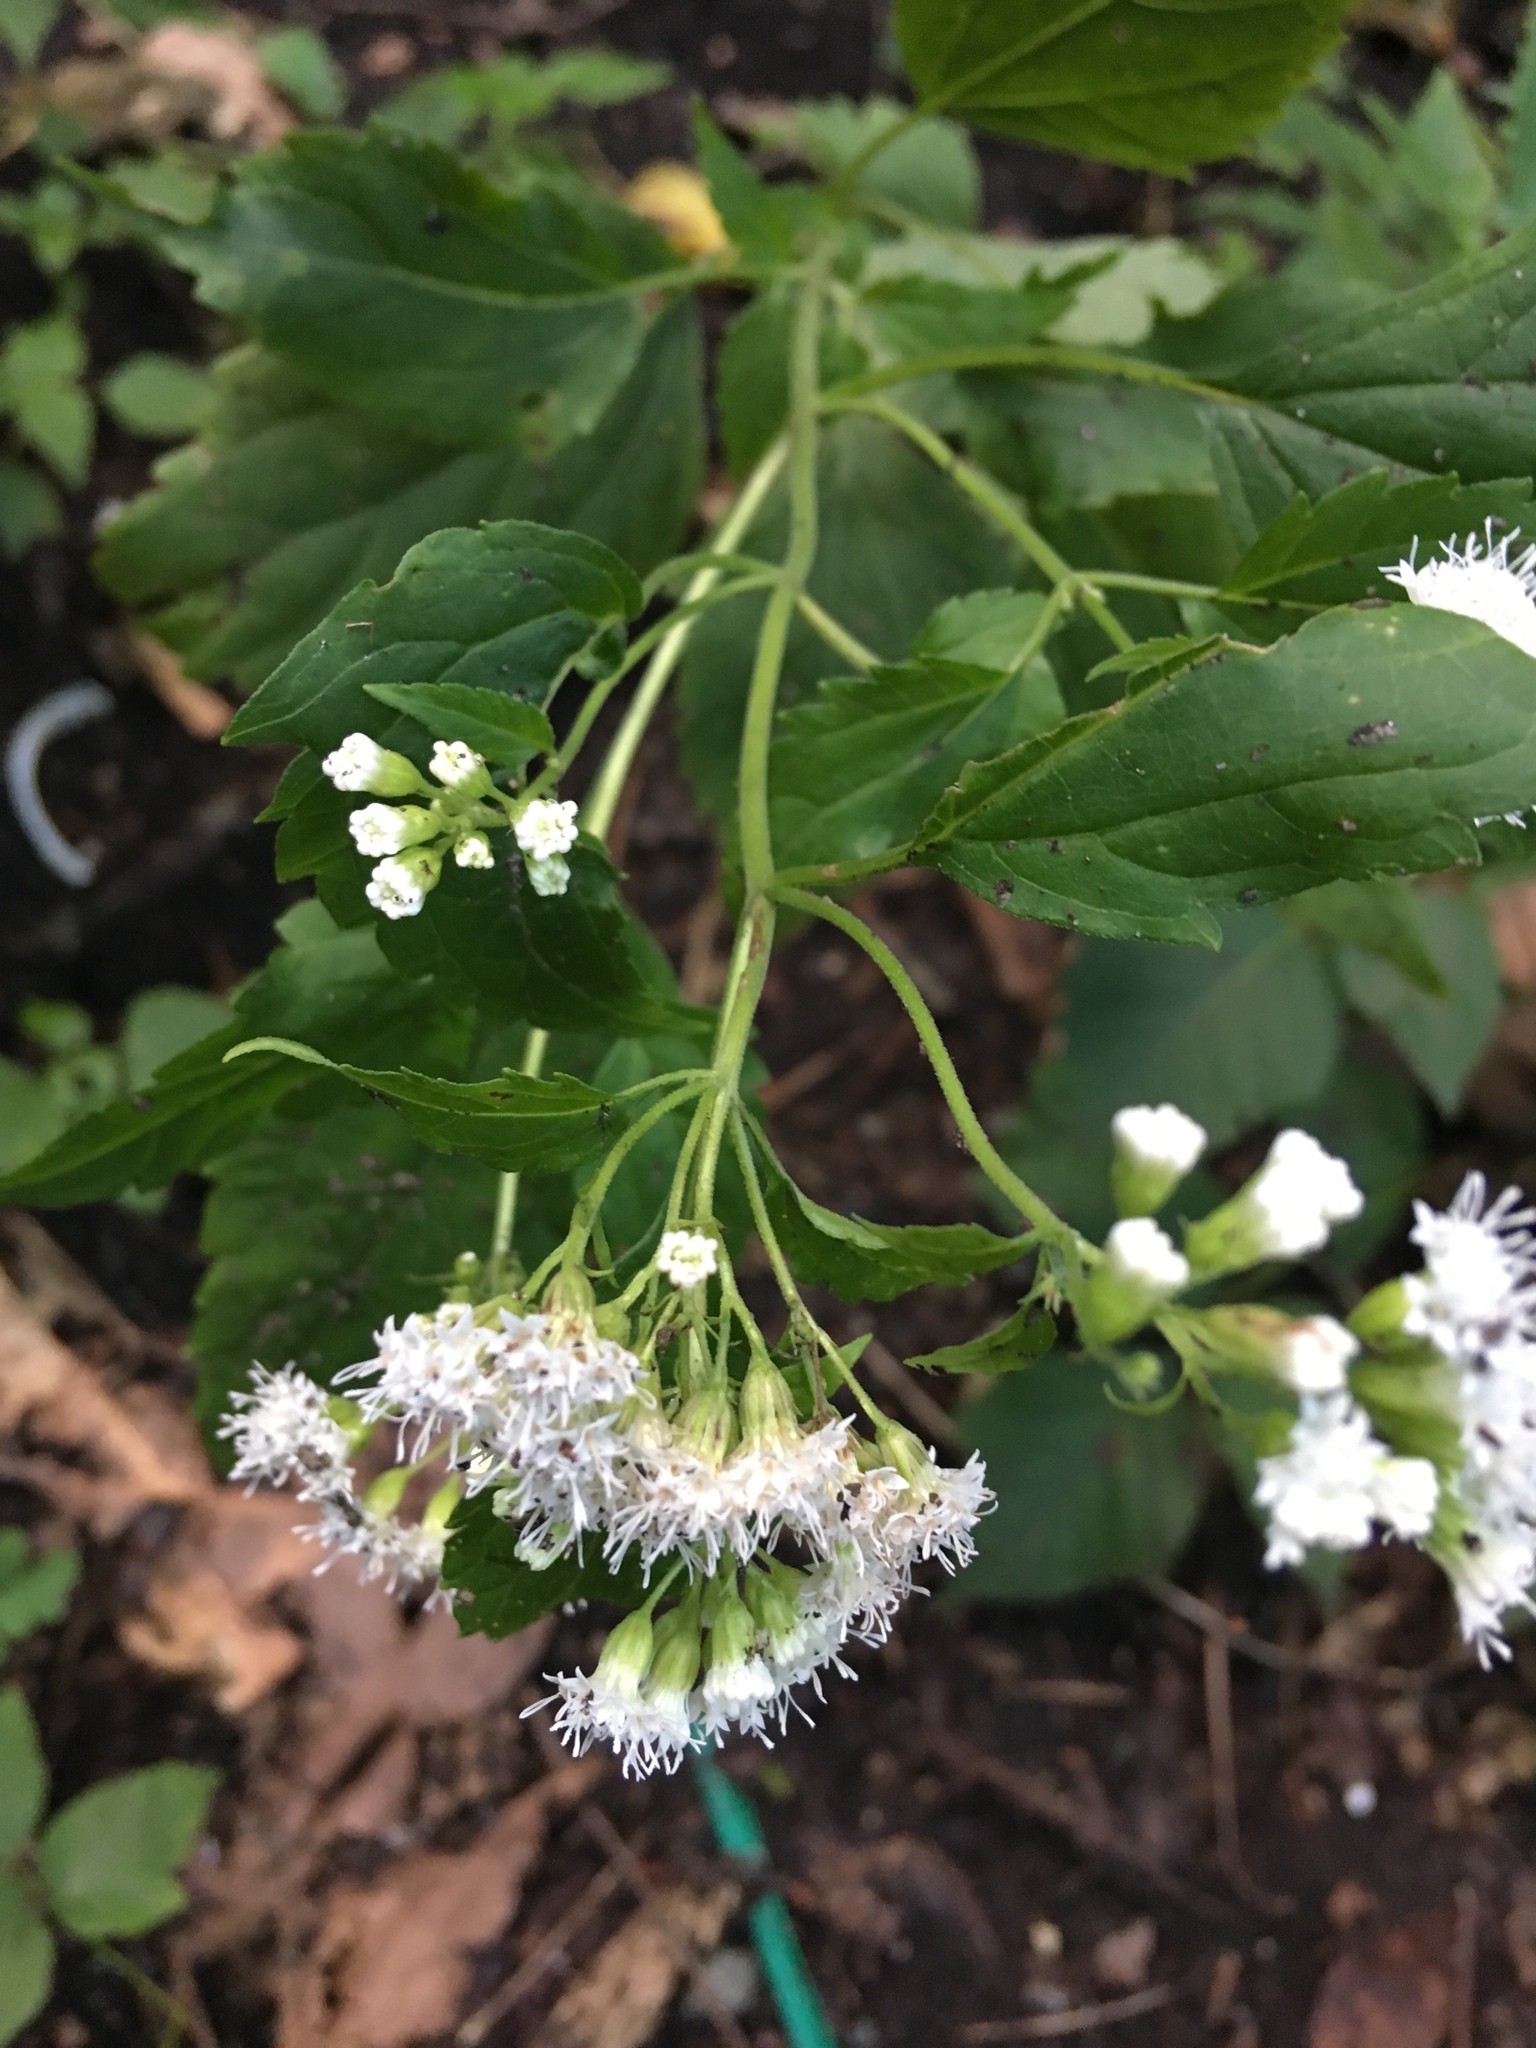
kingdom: Plantae
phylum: Tracheophyta
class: Magnoliopsida
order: Asterales
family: Asteraceae
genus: Ageratina
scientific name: Ageratina altissima
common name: White snakeroot
